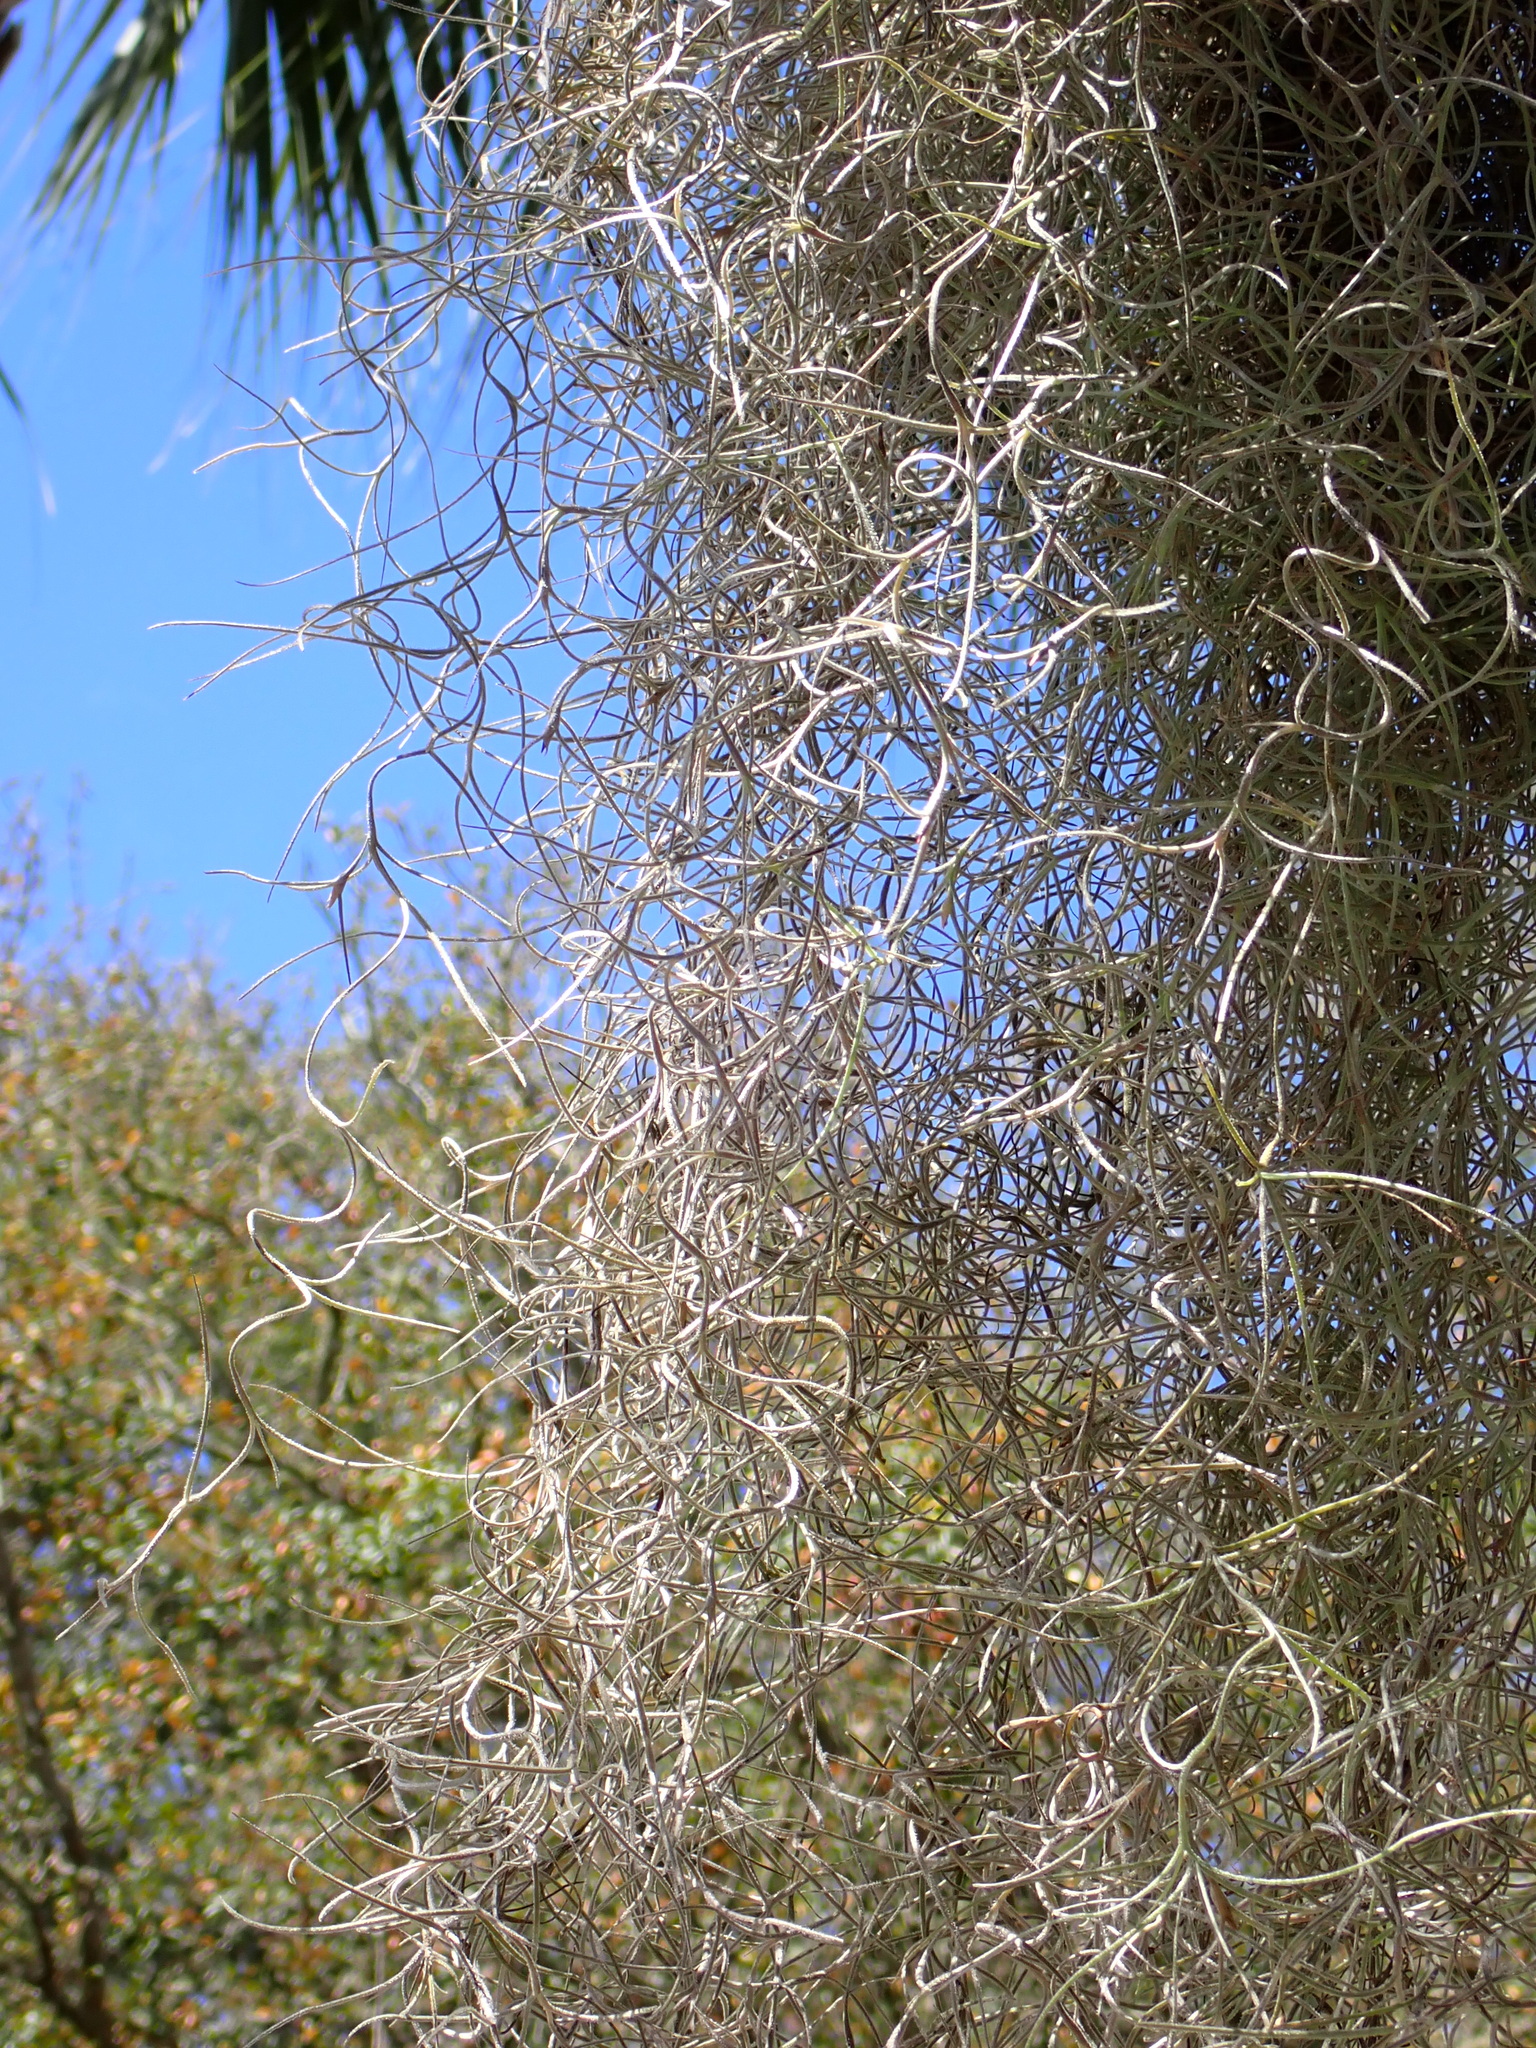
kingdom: Plantae
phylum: Tracheophyta
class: Liliopsida
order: Poales
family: Bromeliaceae
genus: Tillandsia
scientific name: Tillandsia usneoides
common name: Spanish moss
